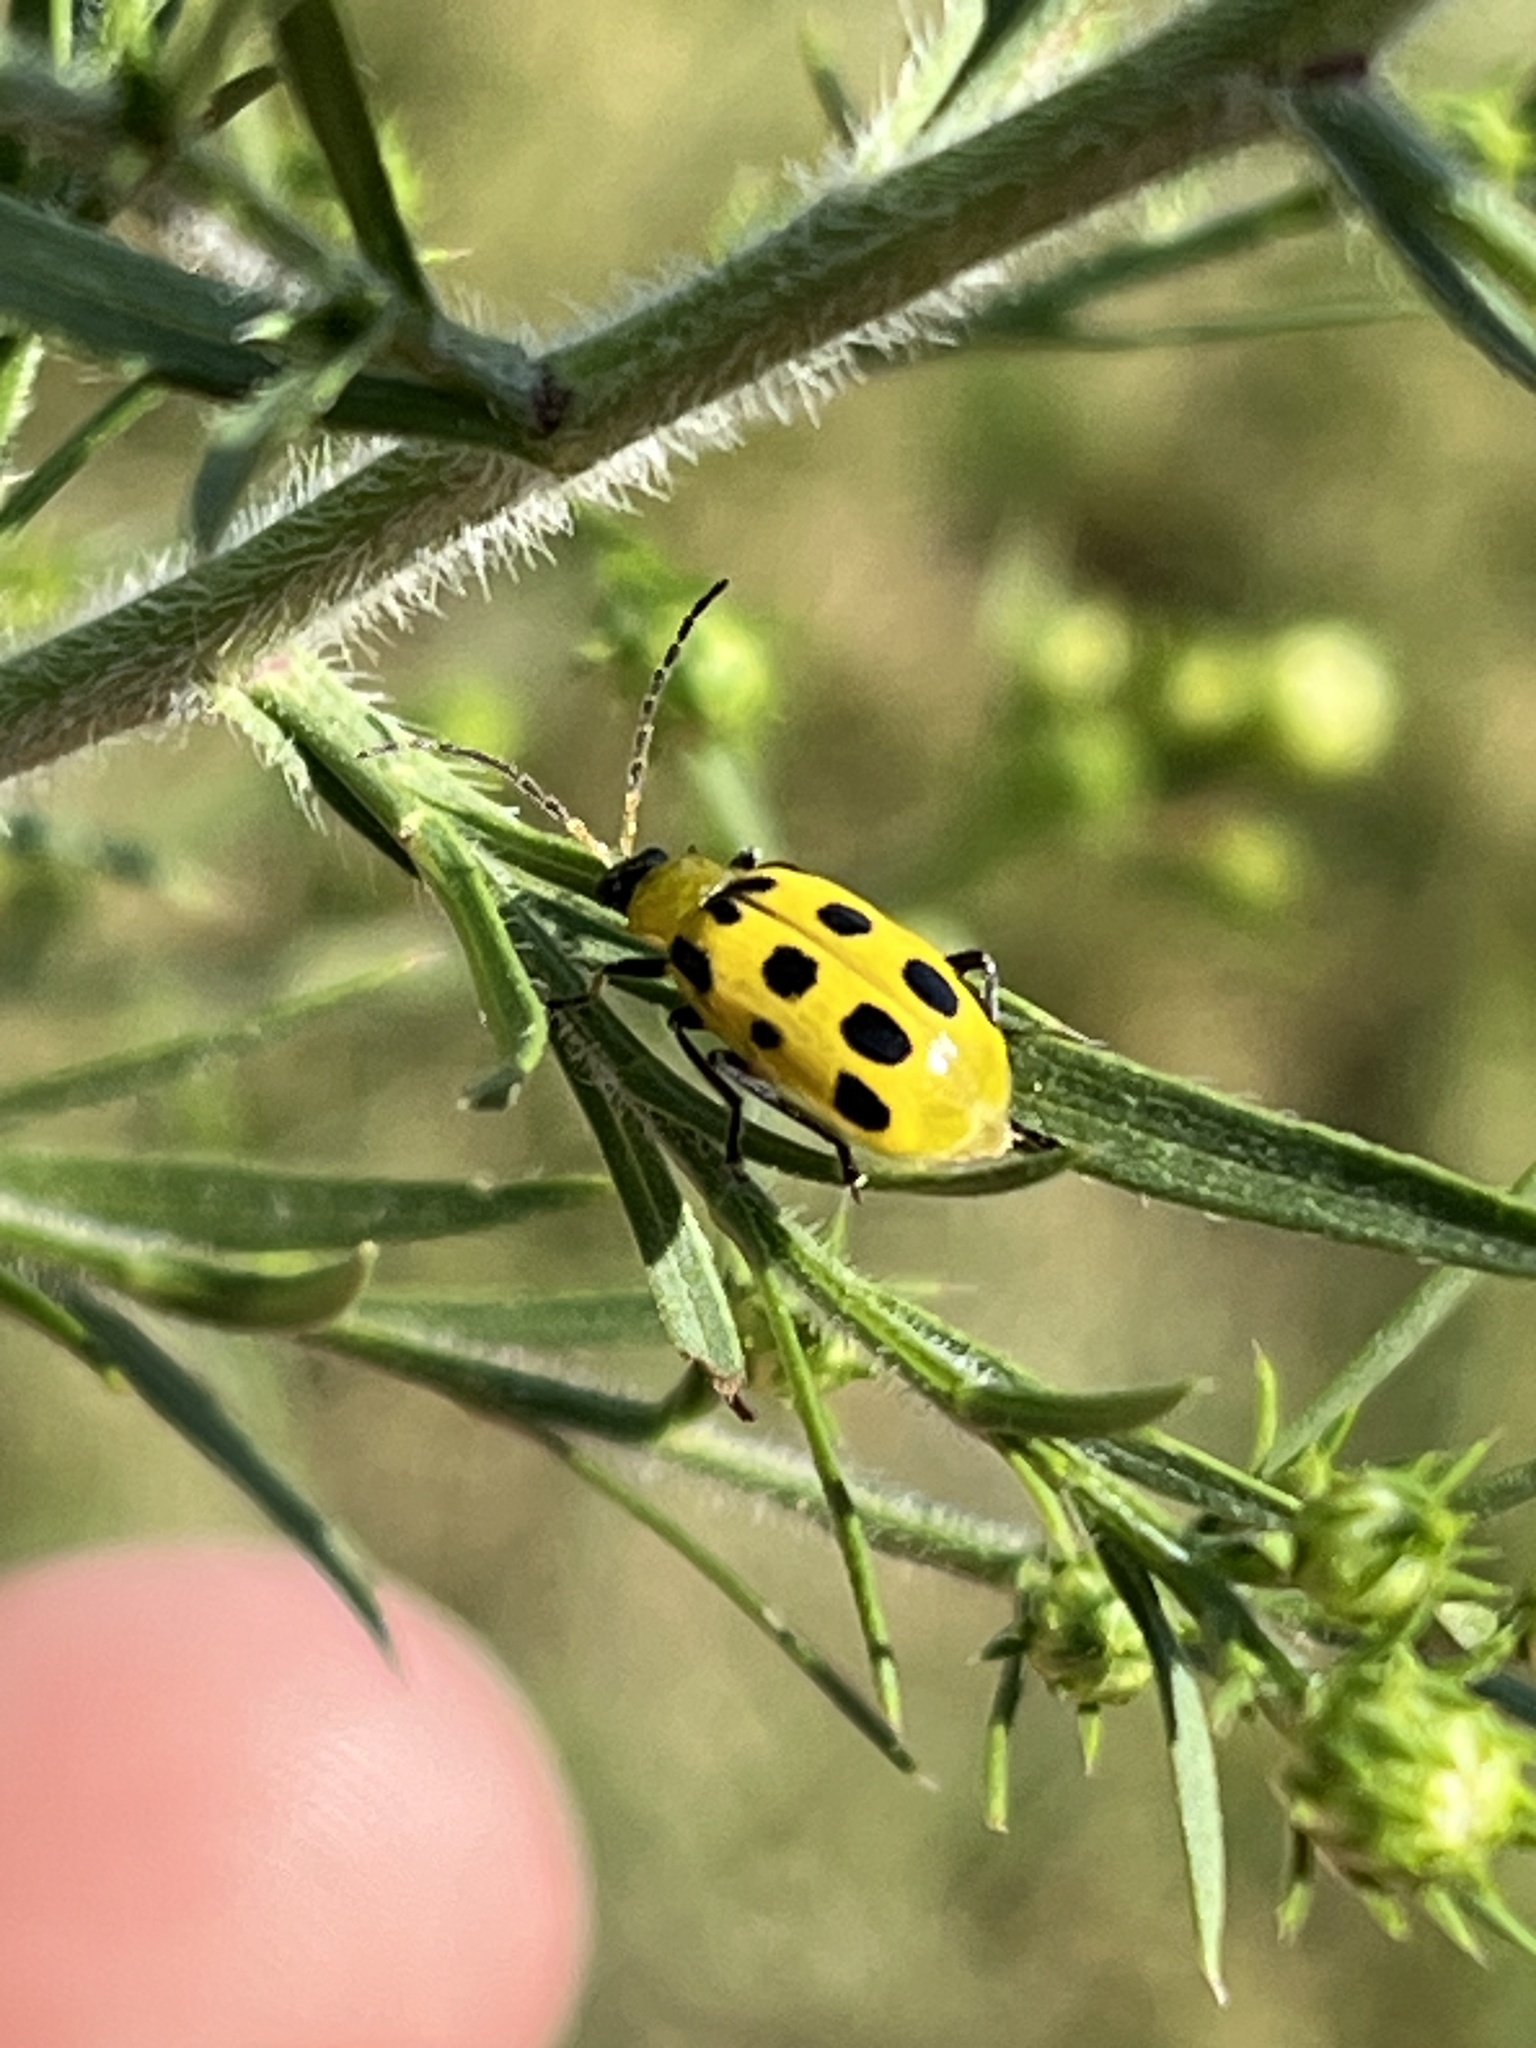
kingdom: Animalia
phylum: Arthropoda
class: Insecta
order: Coleoptera
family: Chrysomelidae
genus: Diabrotica
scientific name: Diabrotica undecimpunctata
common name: Spotted cucumber beetle
